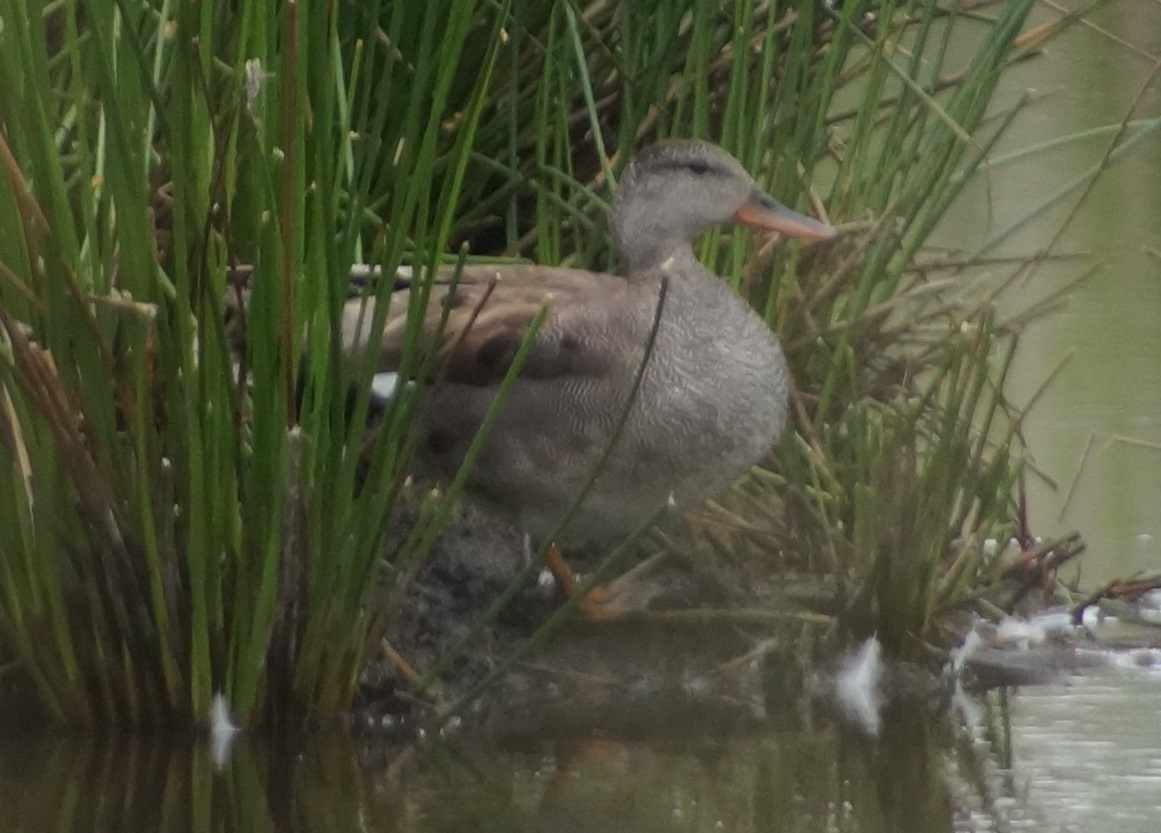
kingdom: Animalia
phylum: Chordata
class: Aves
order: Anseriformes
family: Anatidae
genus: Mareca
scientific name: Mareca strepera
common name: Gadwall
